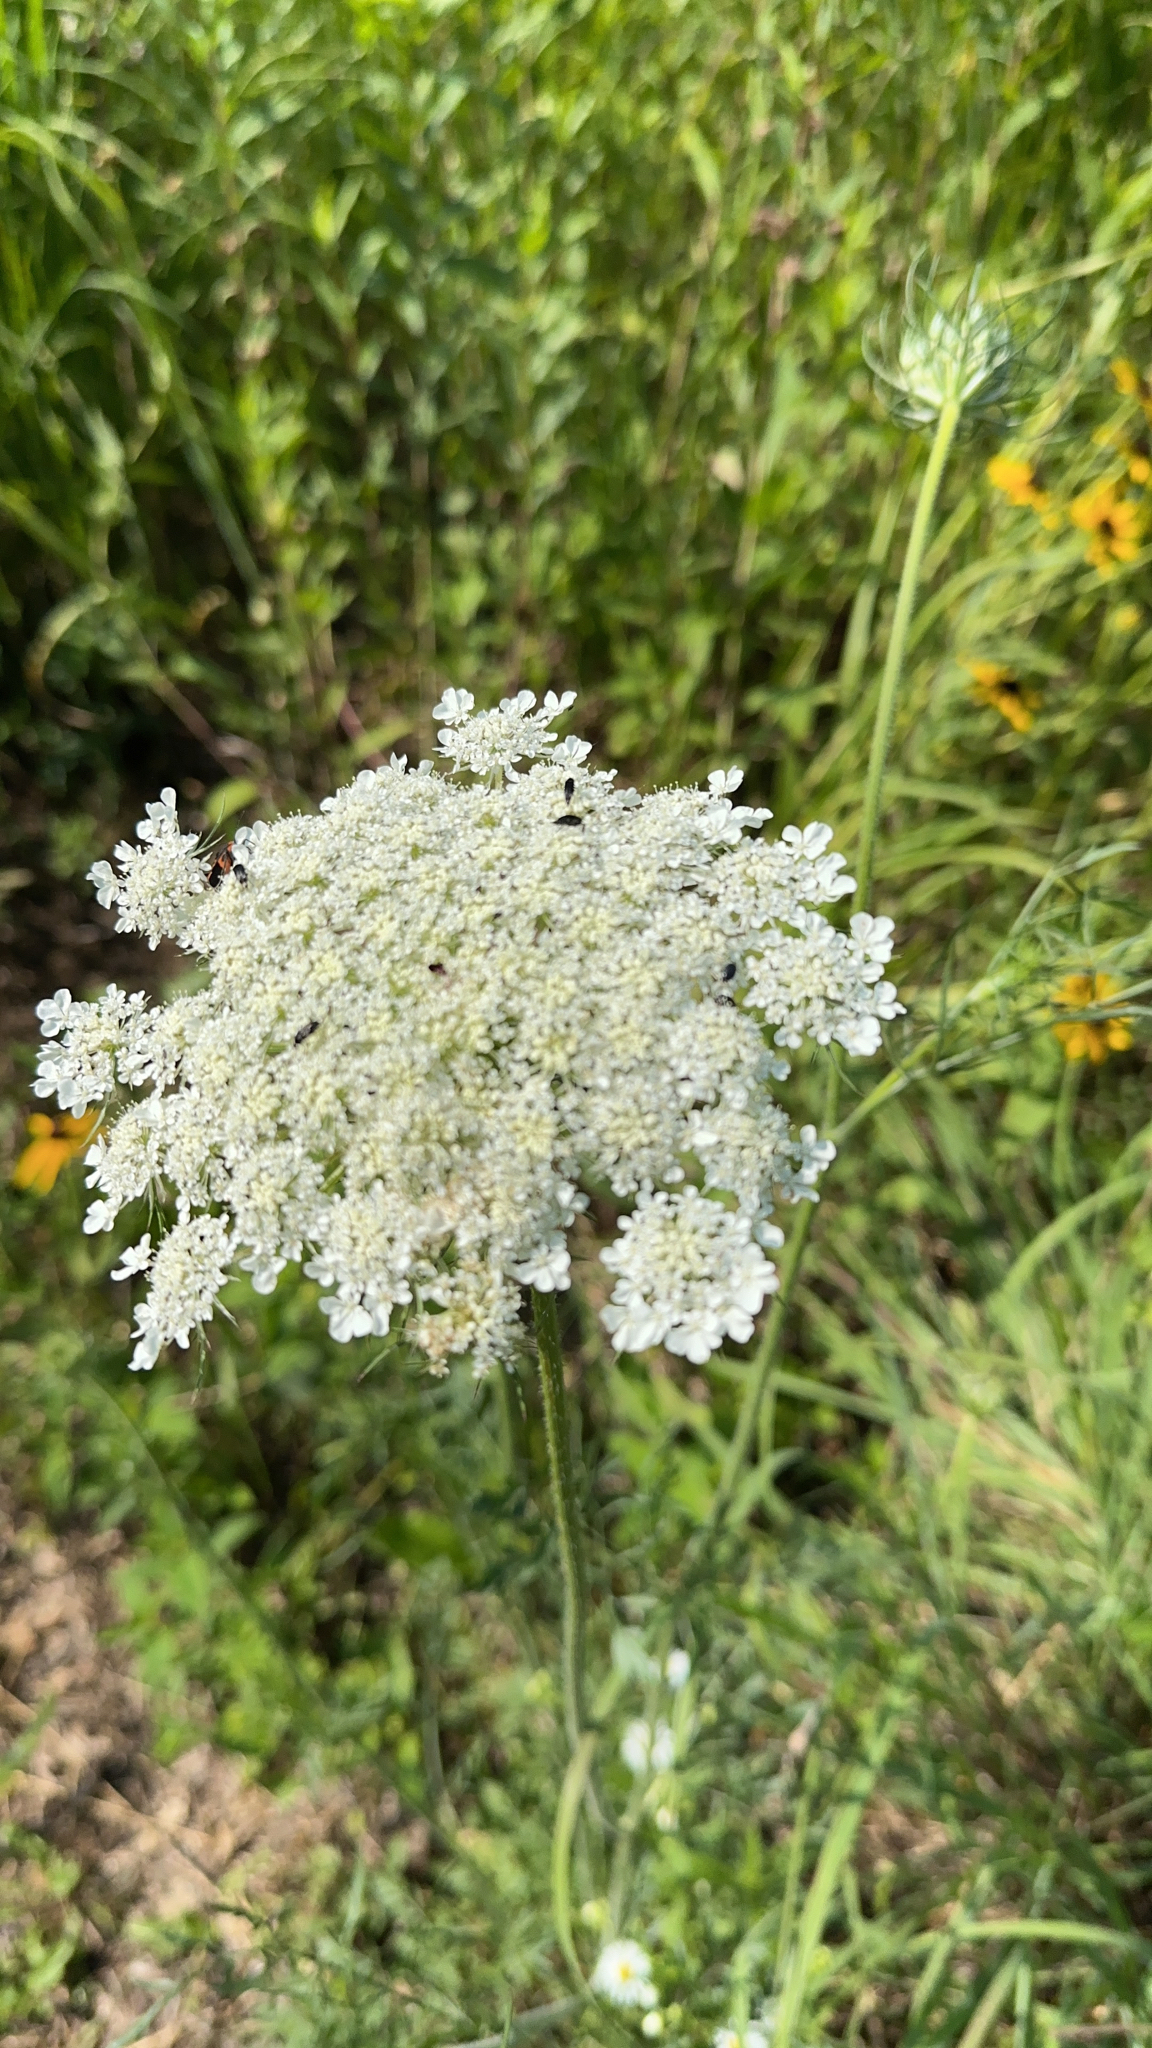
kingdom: Plantae
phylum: Tracheophyta
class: Magnoliopsida
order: Apiales
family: Apiaceae
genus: Daucus
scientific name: Daucus carota
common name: Wild carrot
